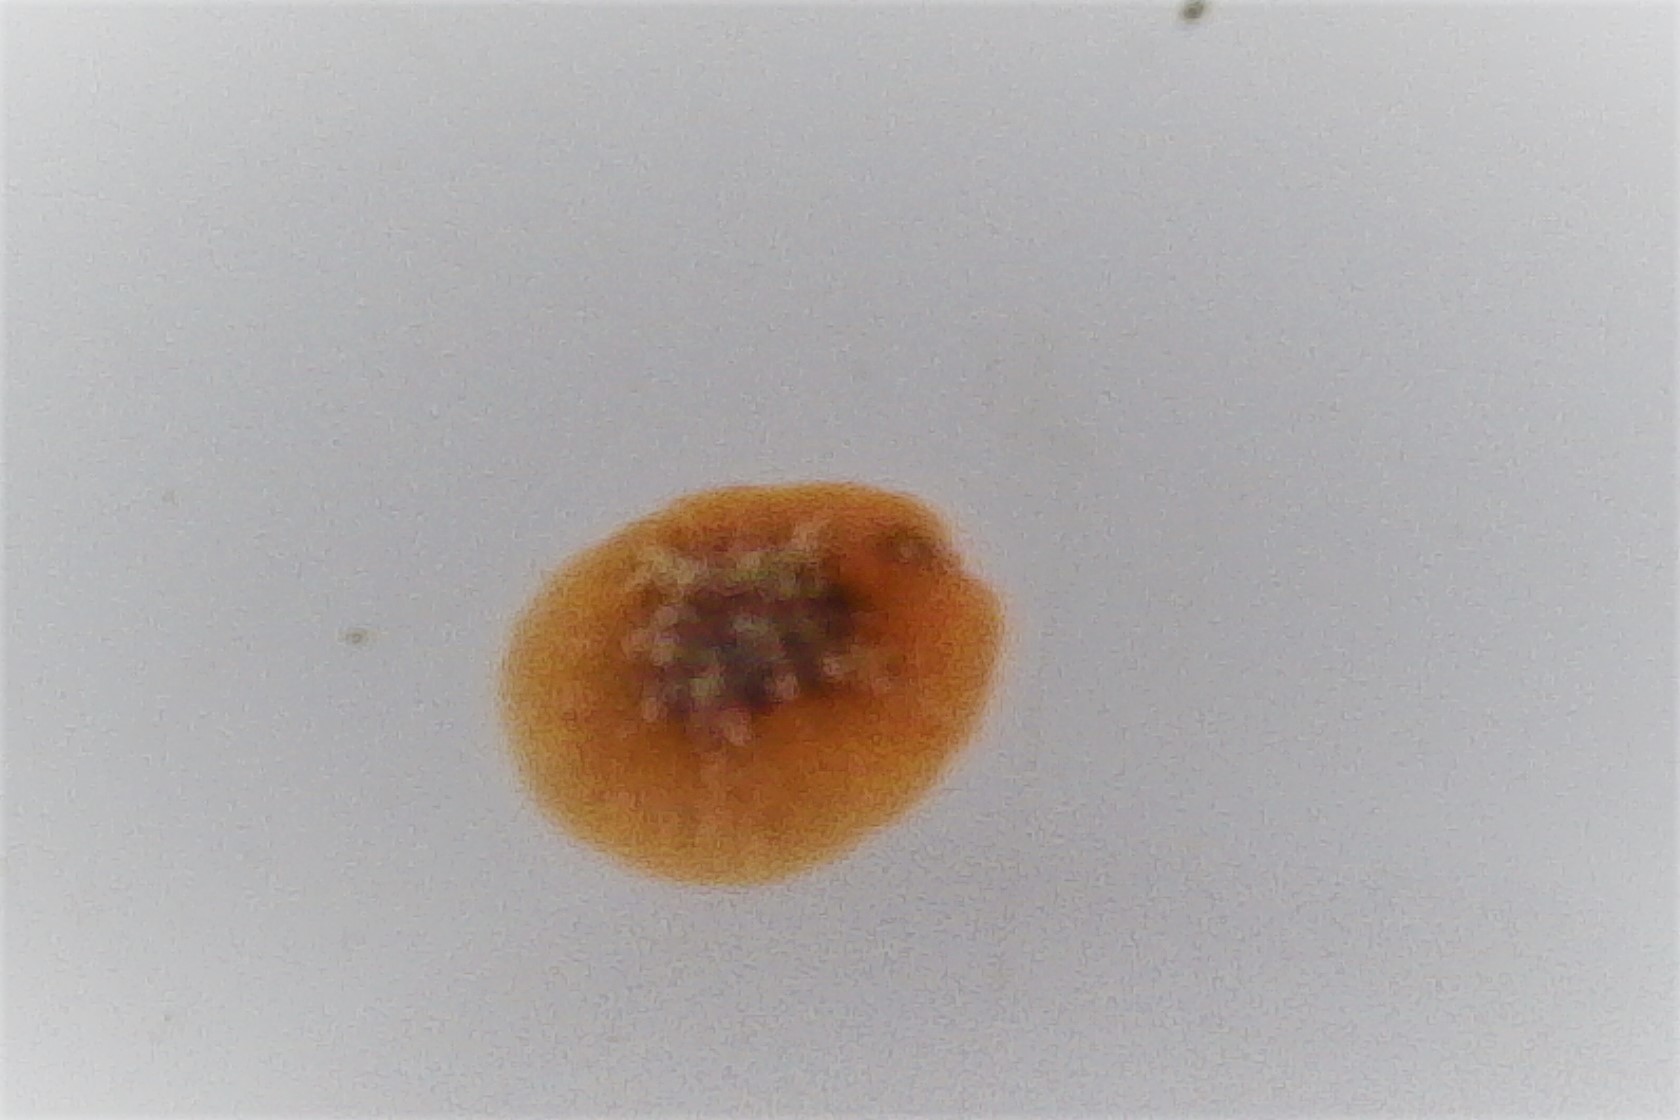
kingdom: Animalia
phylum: Mollusca
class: Gastropoda
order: Littorinimorpha
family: Velutinidae
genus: Lamellaria
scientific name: Lamellaria ophione
